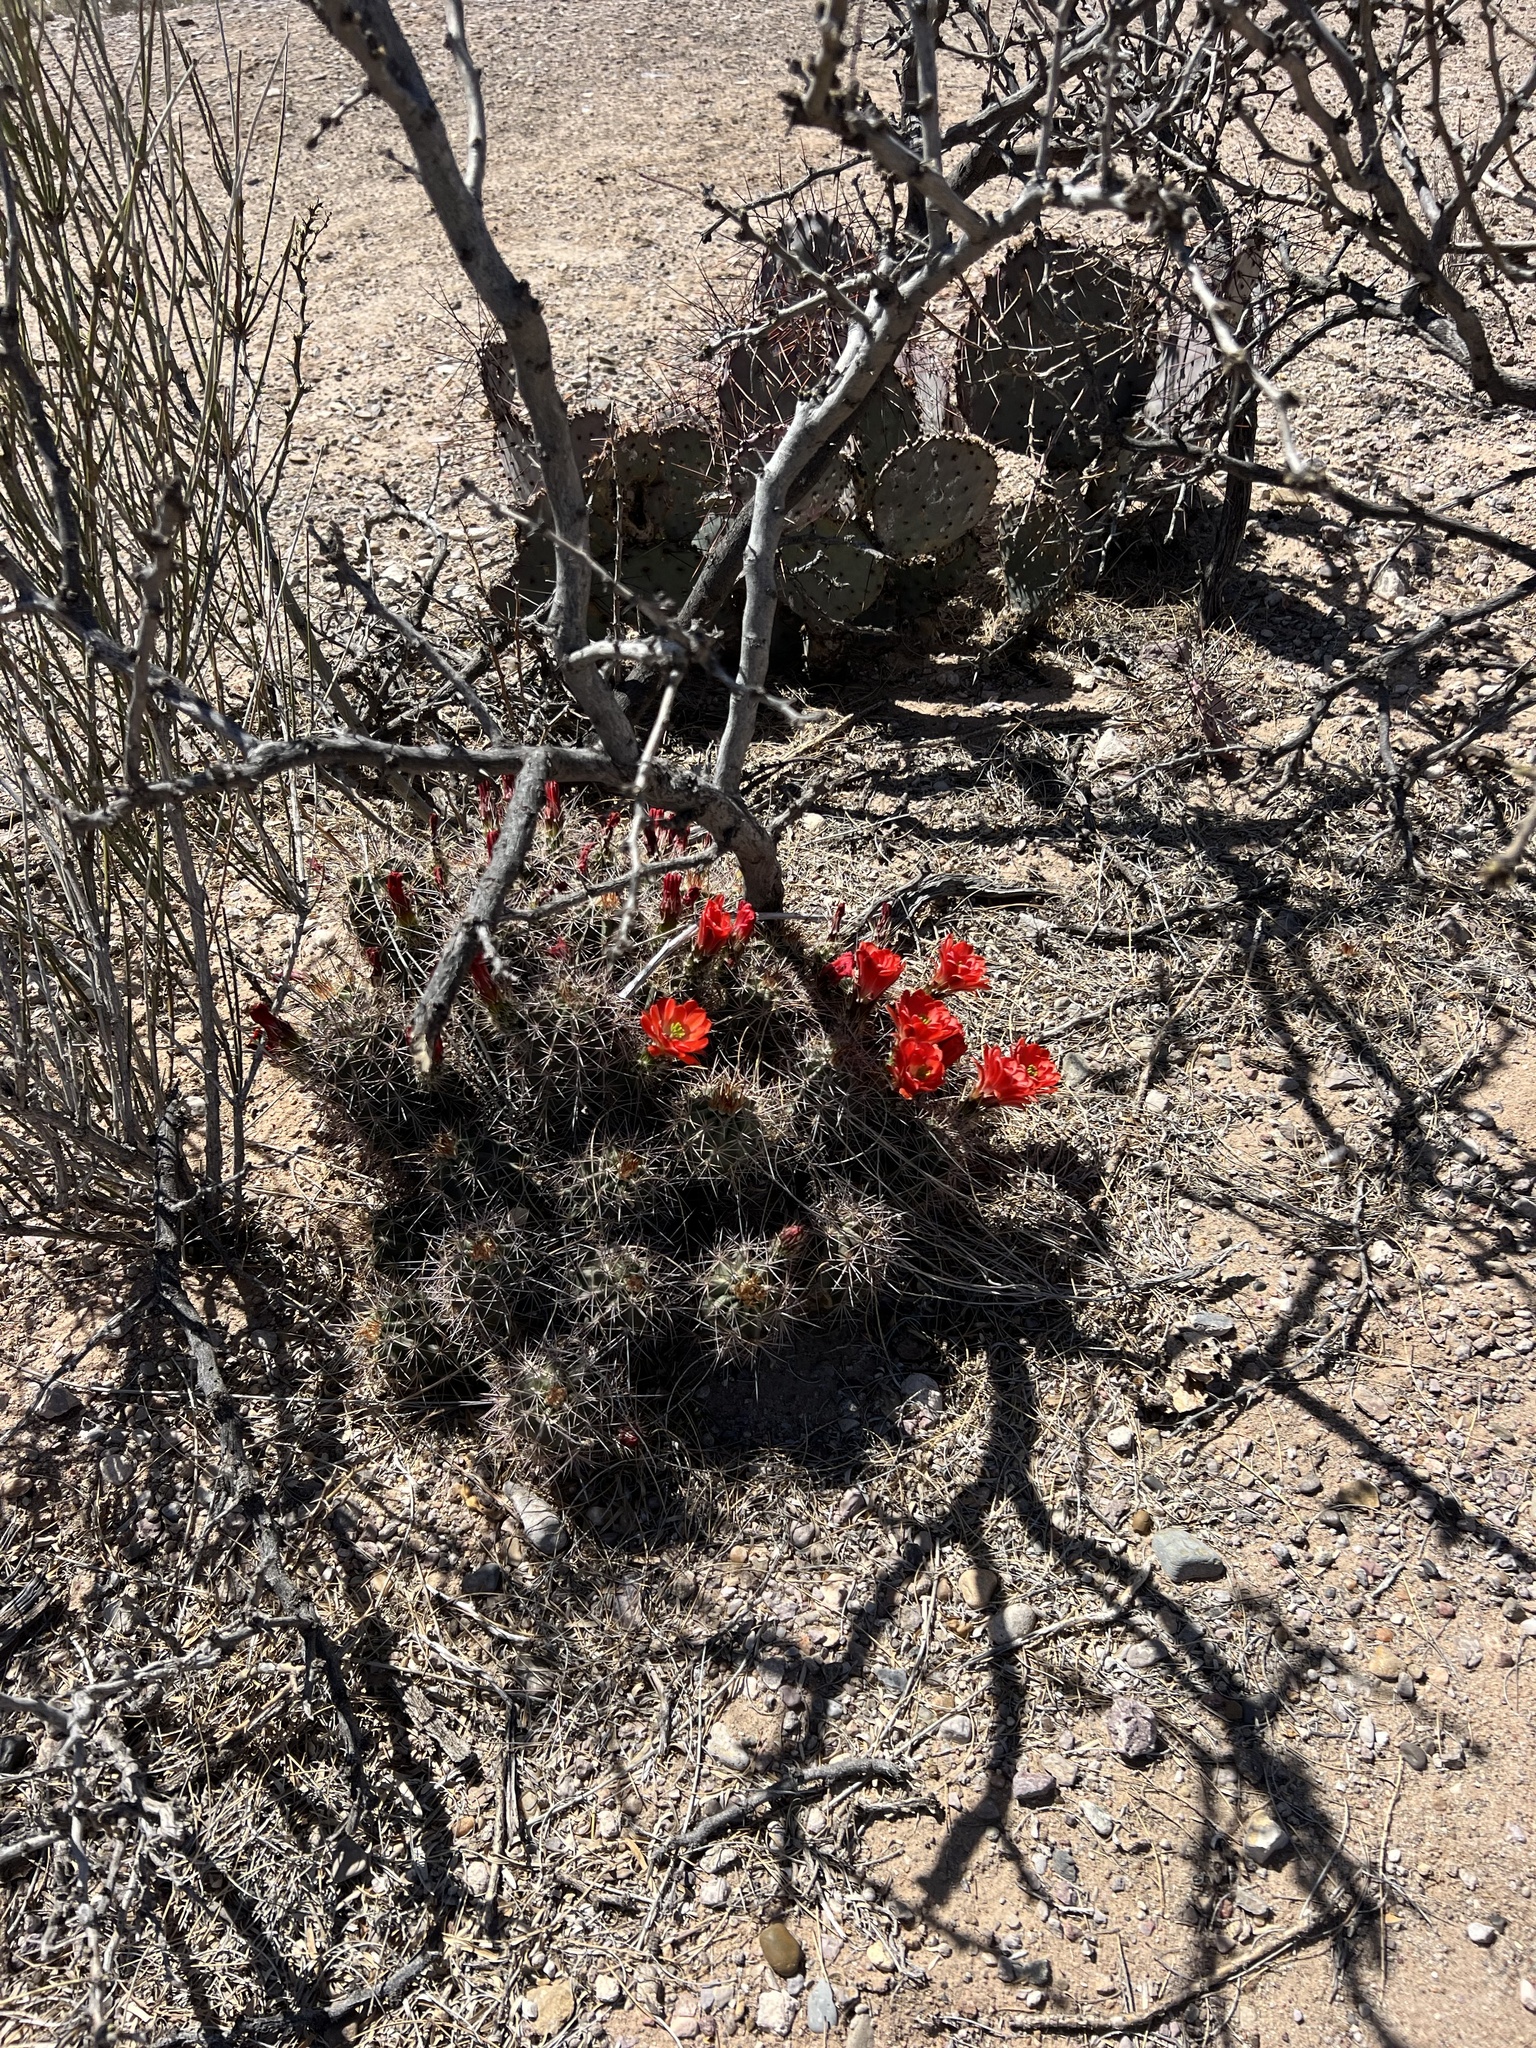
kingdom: Plantae
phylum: Tracheophyta
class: Magnoliopsida
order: Caryophyllales
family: Cactaceae
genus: Echinocereus
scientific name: Echinocereus coccineus
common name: Scarlet hedgehog cactus
